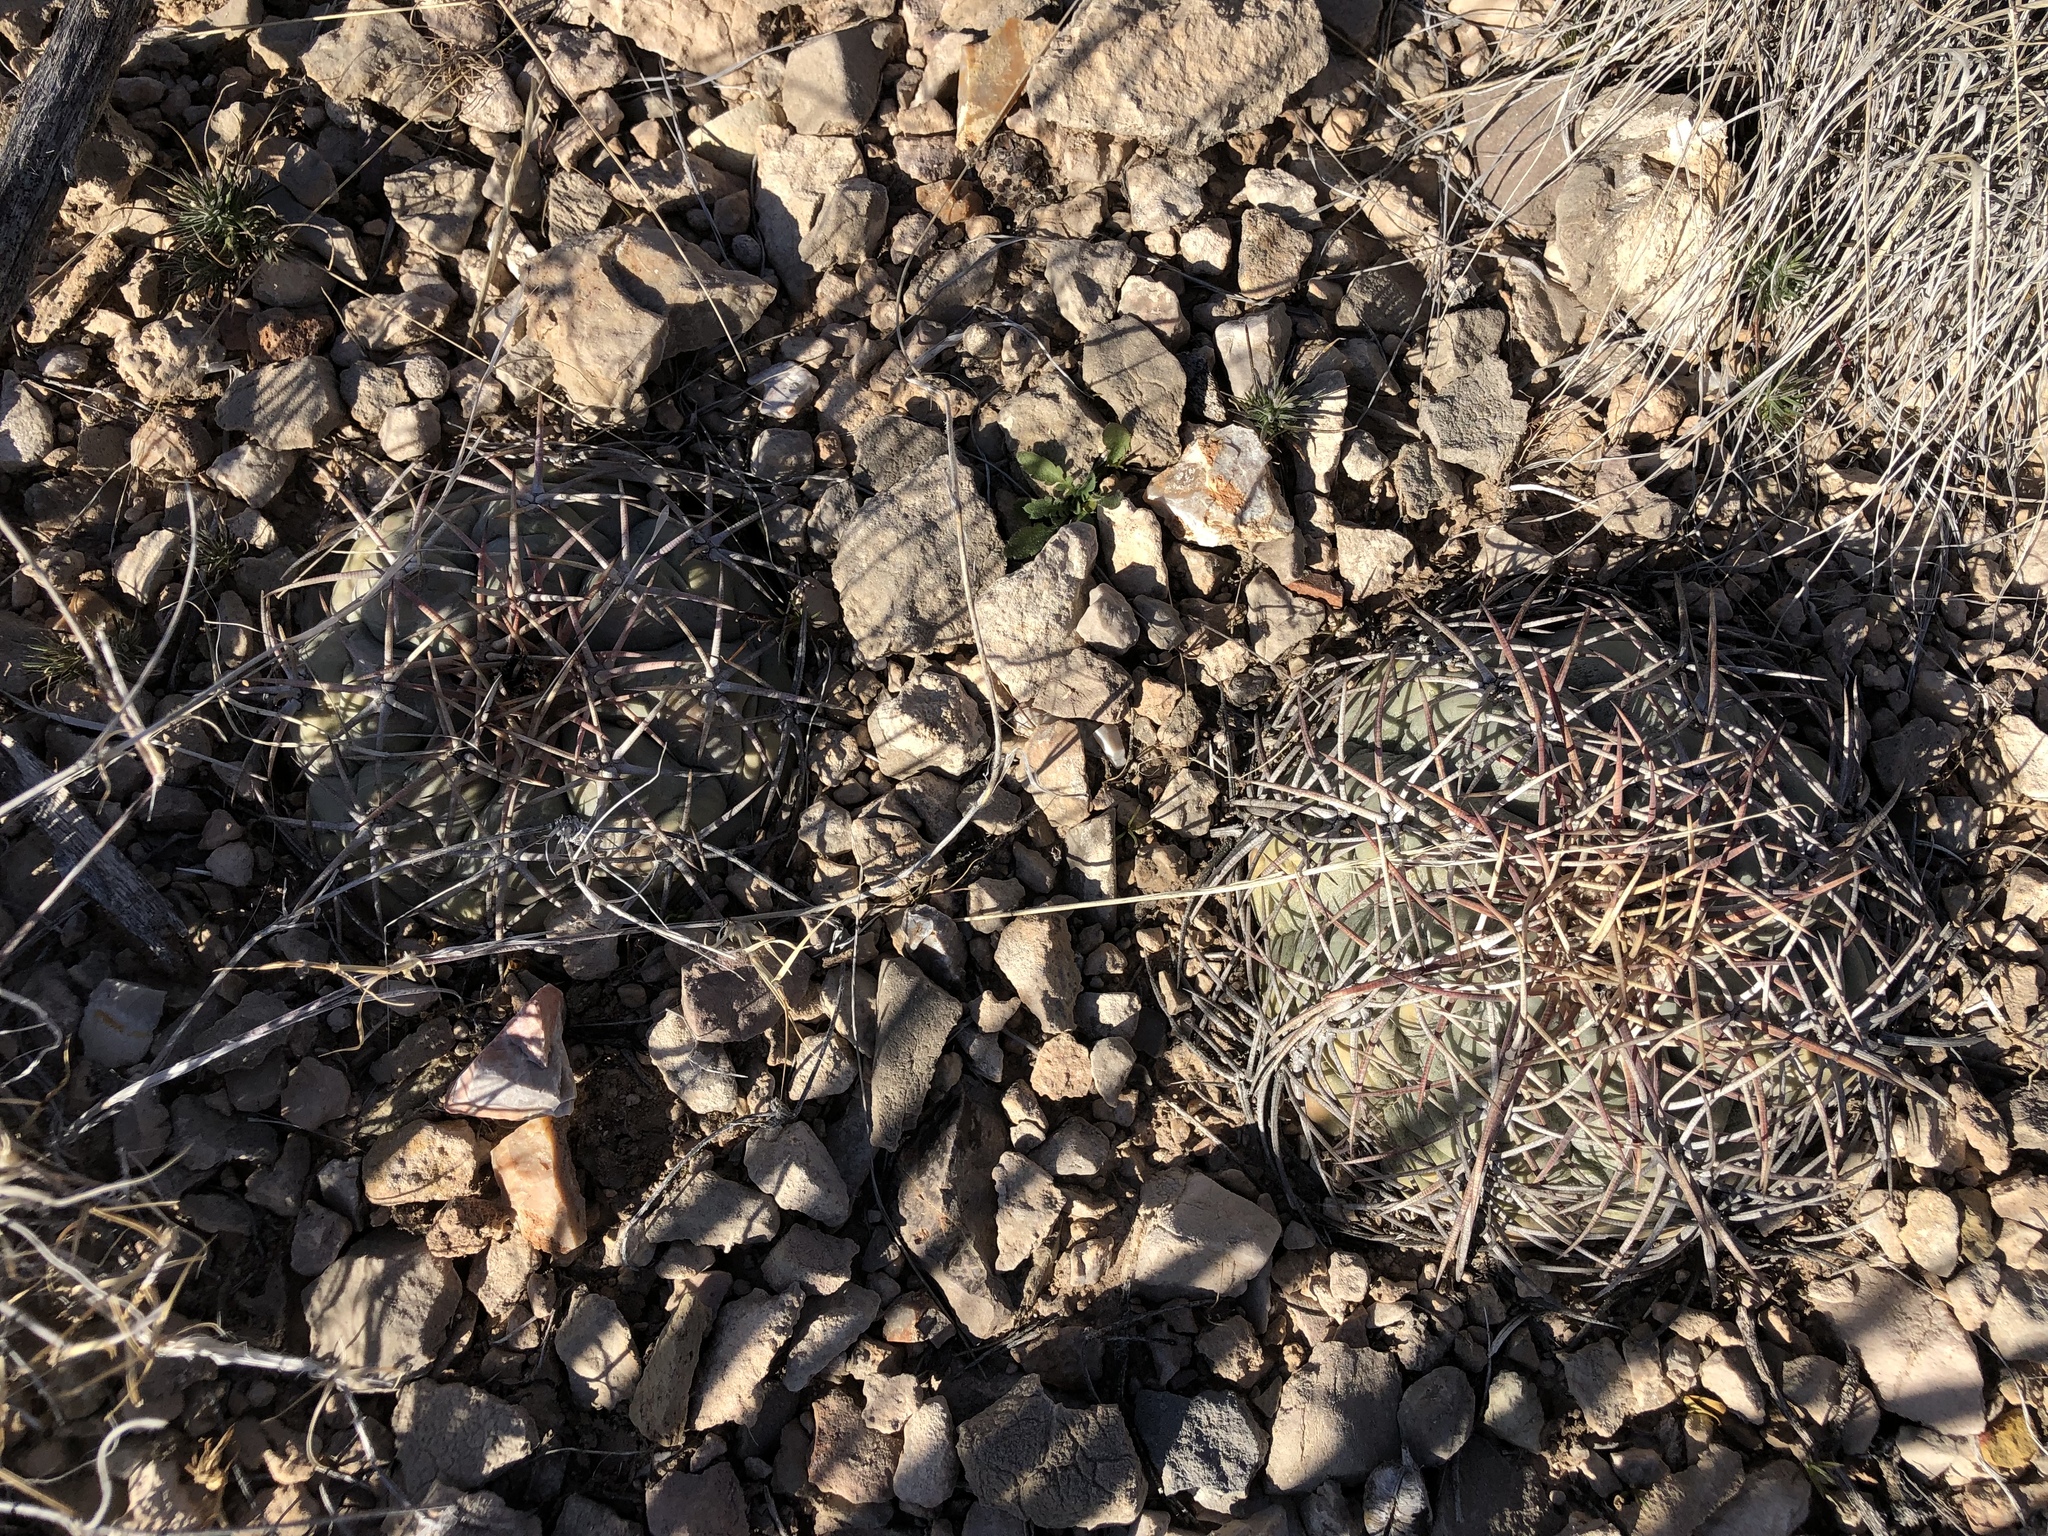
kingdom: Plantae
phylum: Tracheophyta
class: Magnoliopsida
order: Caryophyllales
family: Cactaceae
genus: Echinocactus
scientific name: Echinocactus horizonthalonius
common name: Devilshead
